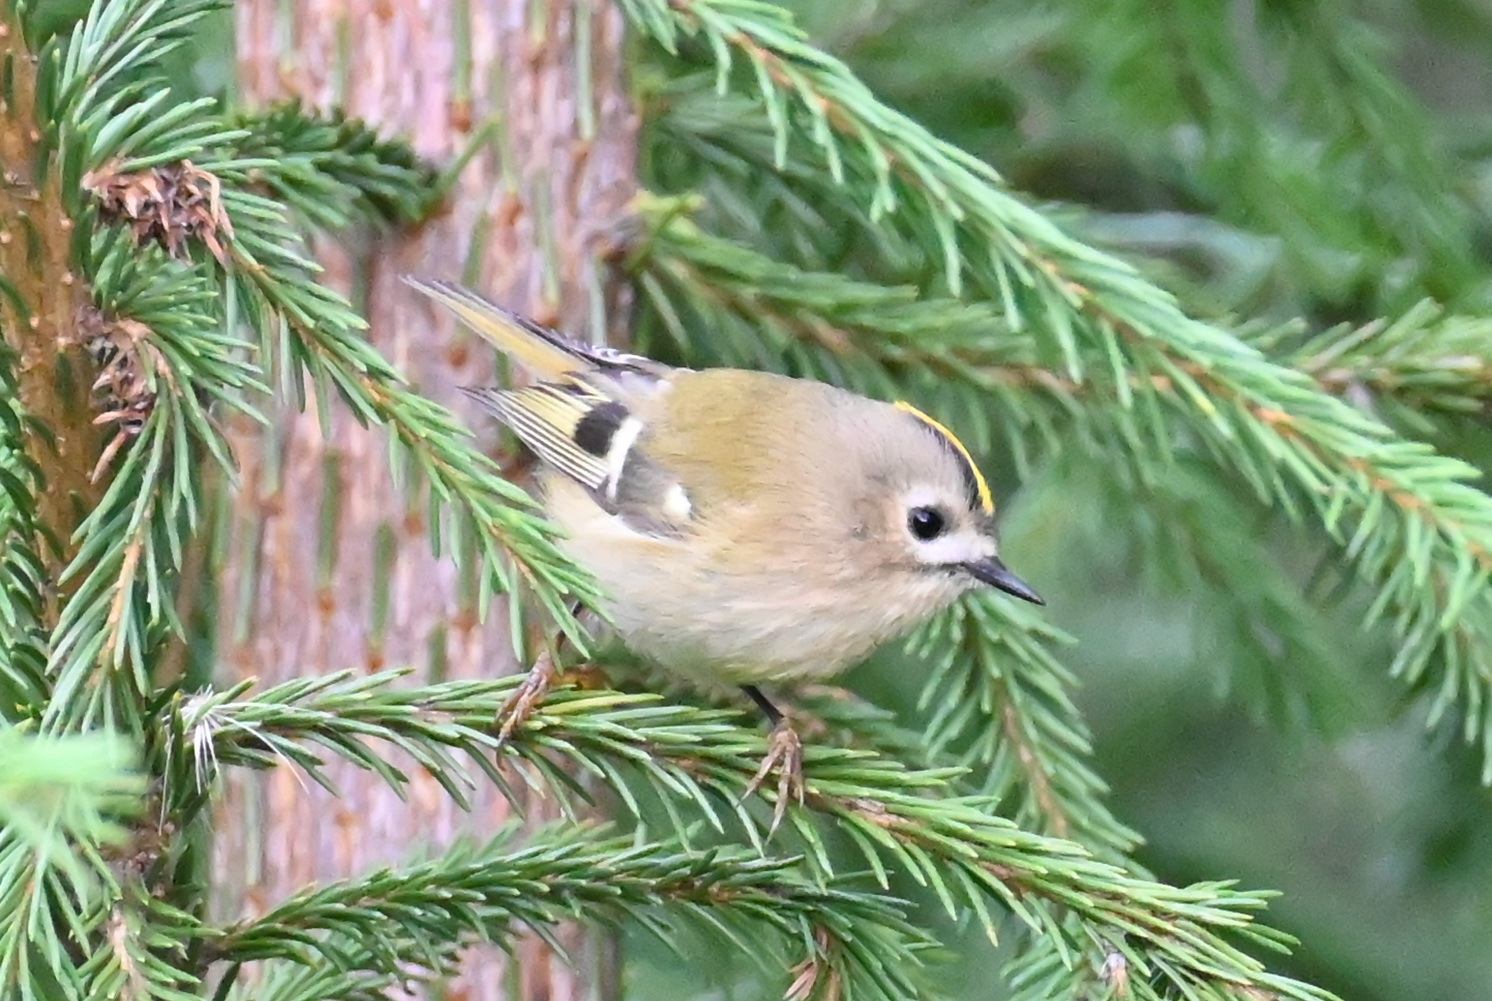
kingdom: Animalia
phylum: Chordata
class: Aves
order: Passeriformes
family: Regulidae
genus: Regulus
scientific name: Regulus regulus
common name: Goldcrest
